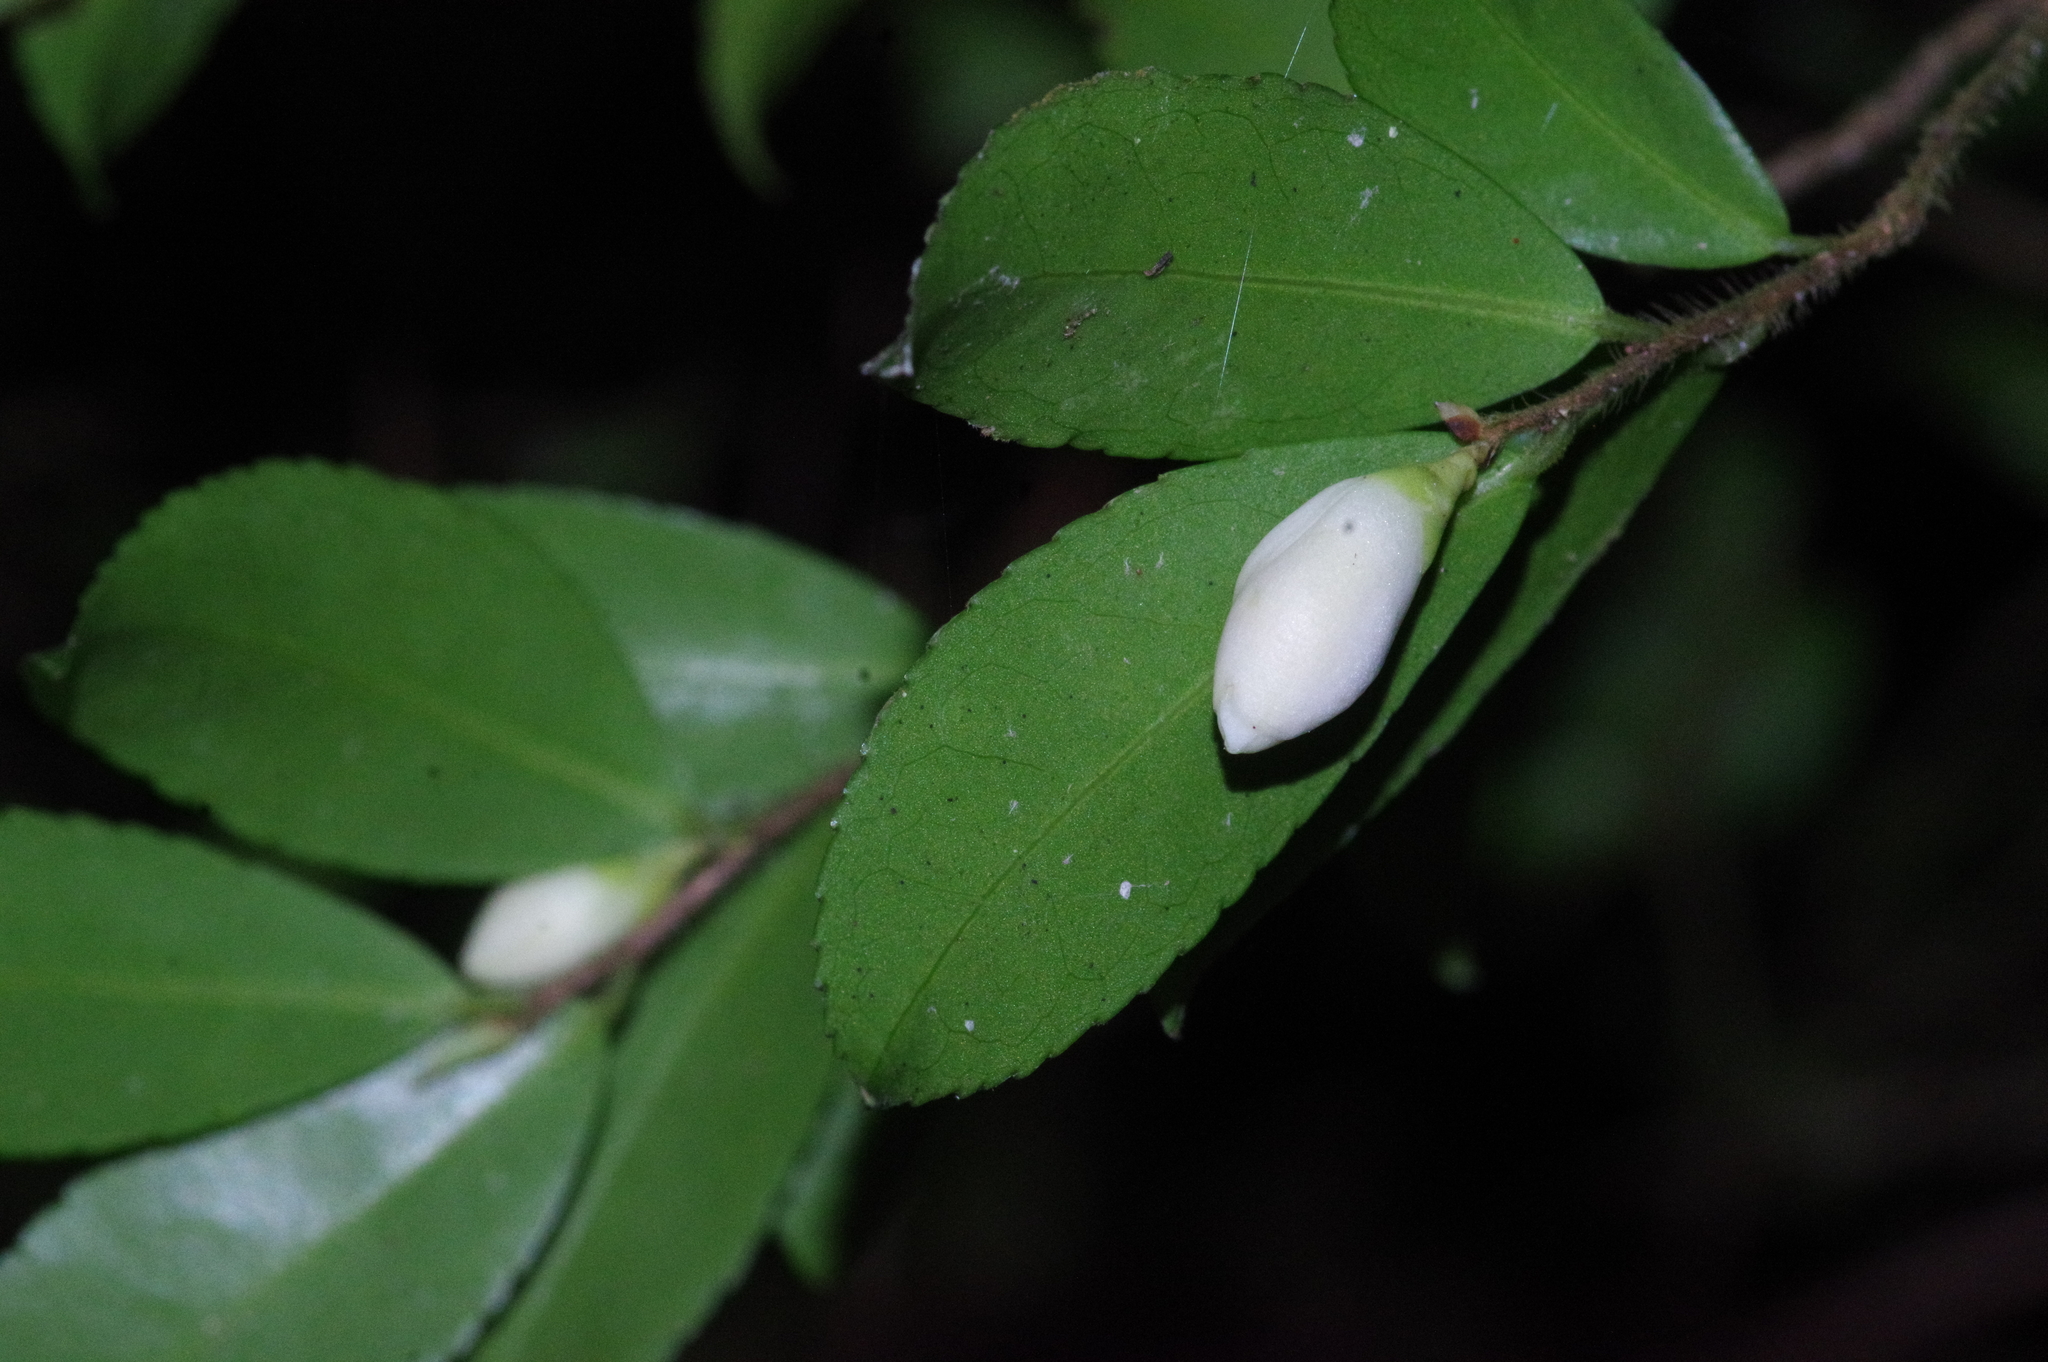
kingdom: Plantae
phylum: Tracheophyta
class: Magnoliopsida
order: Ericales
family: Theaceae
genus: Camellia
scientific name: Camellia lutchuensis
